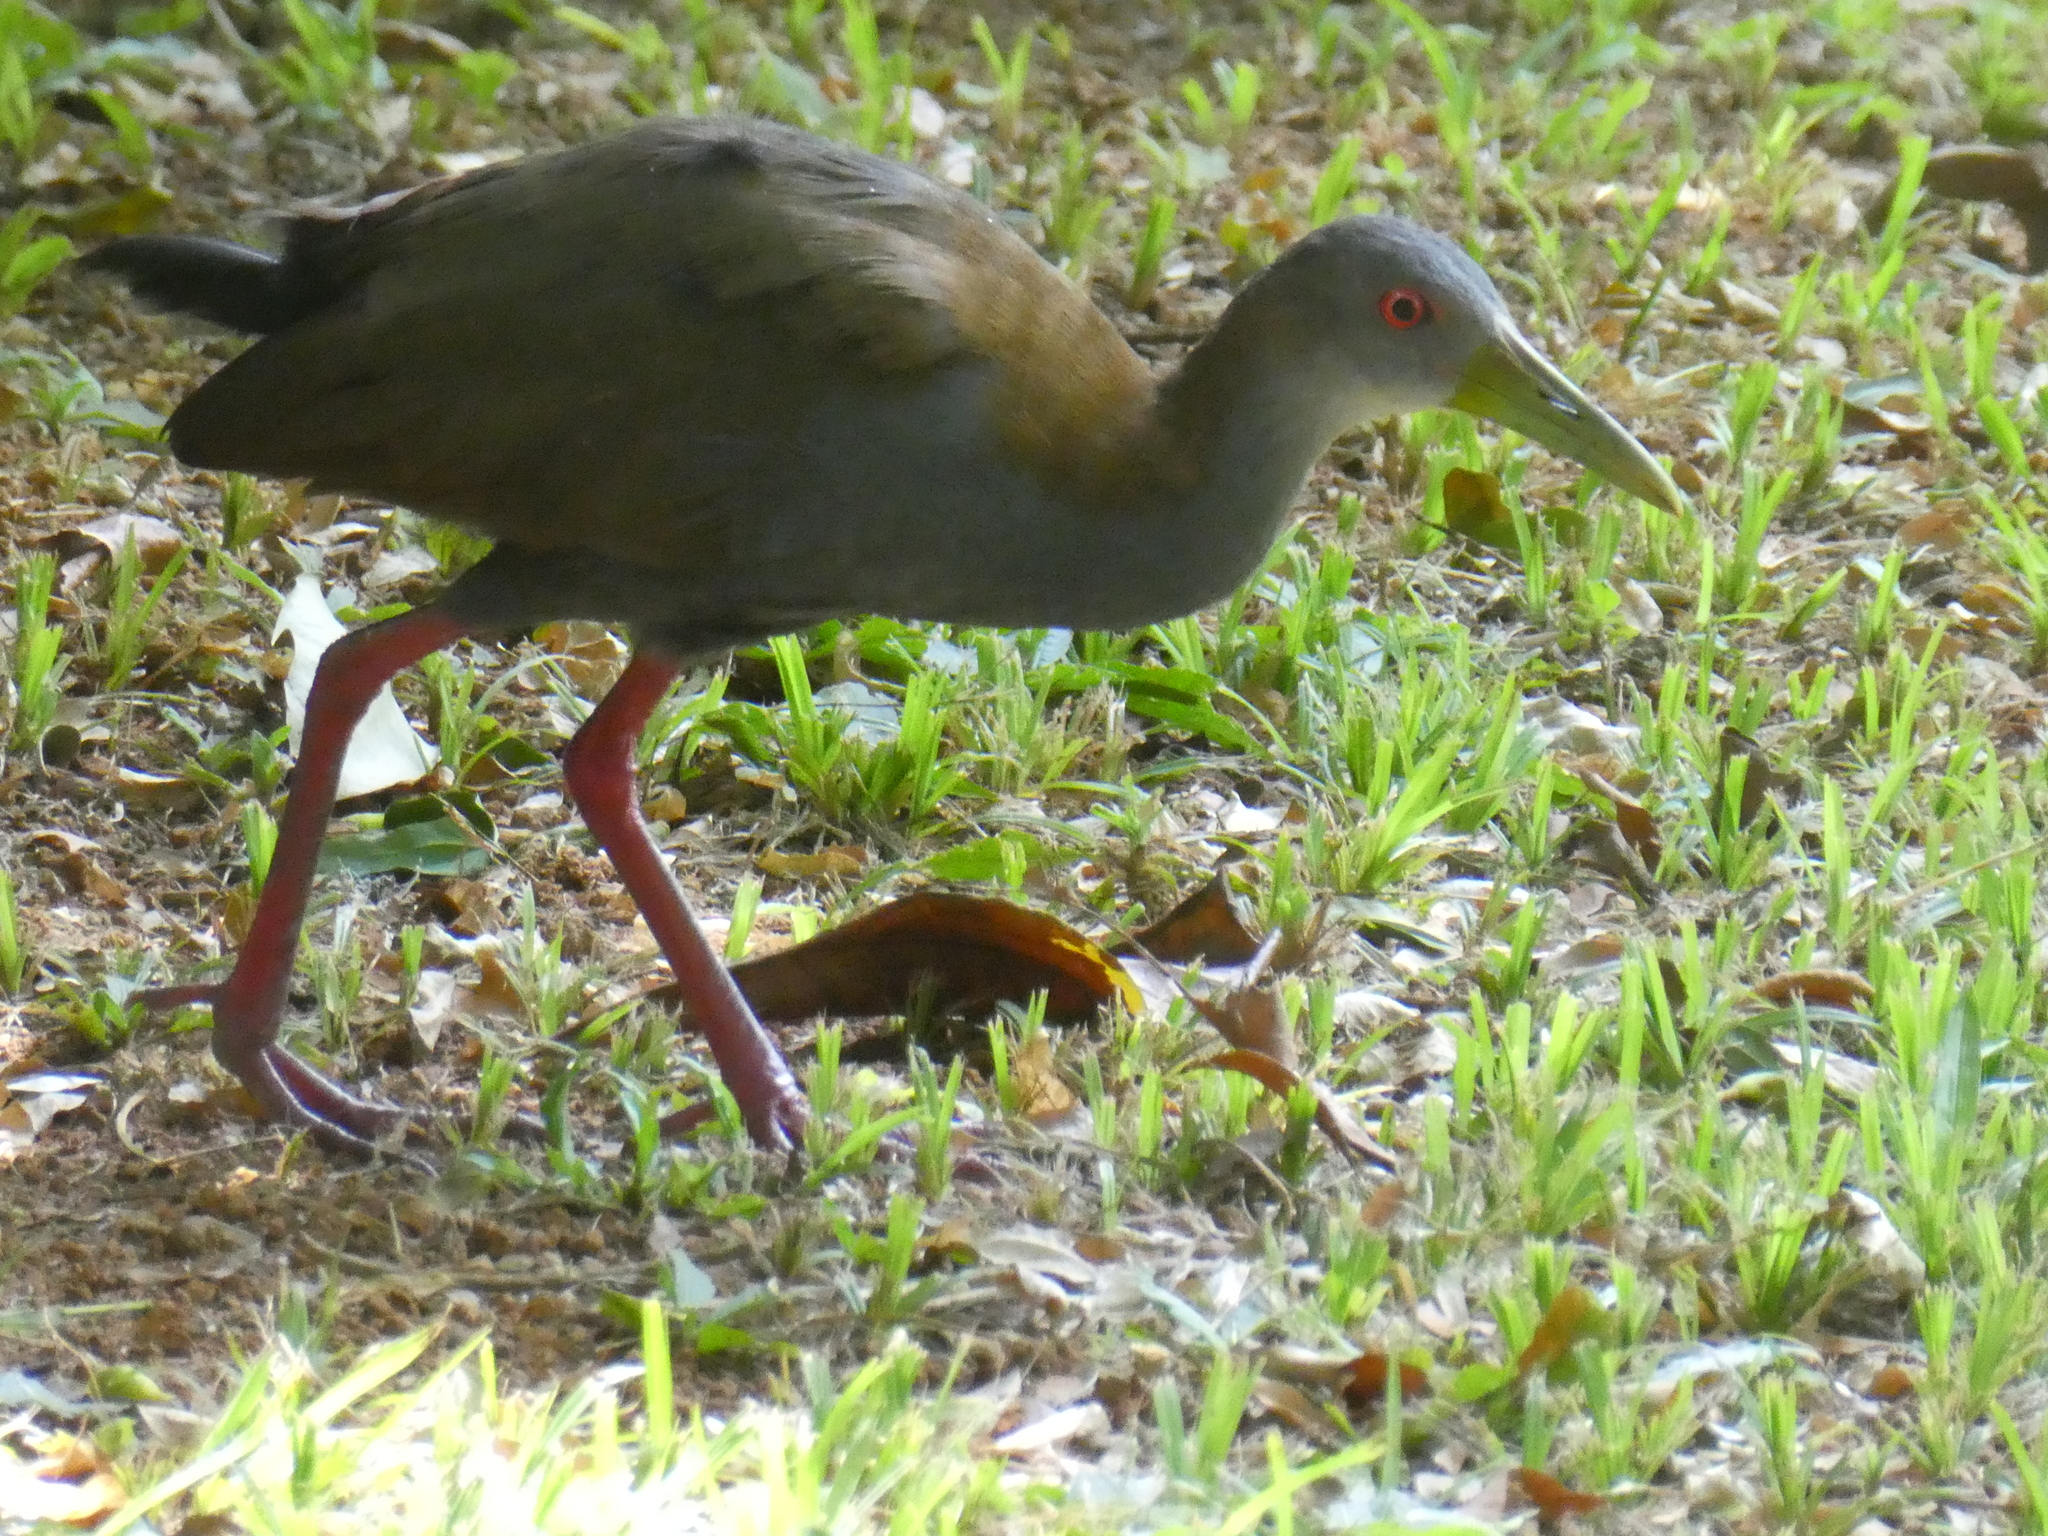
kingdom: Animalia
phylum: Chordata
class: Aves
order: Gruiformes
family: Rallidae
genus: Aramides
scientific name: Aramides saracura
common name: Slaty-breasted wood rail
